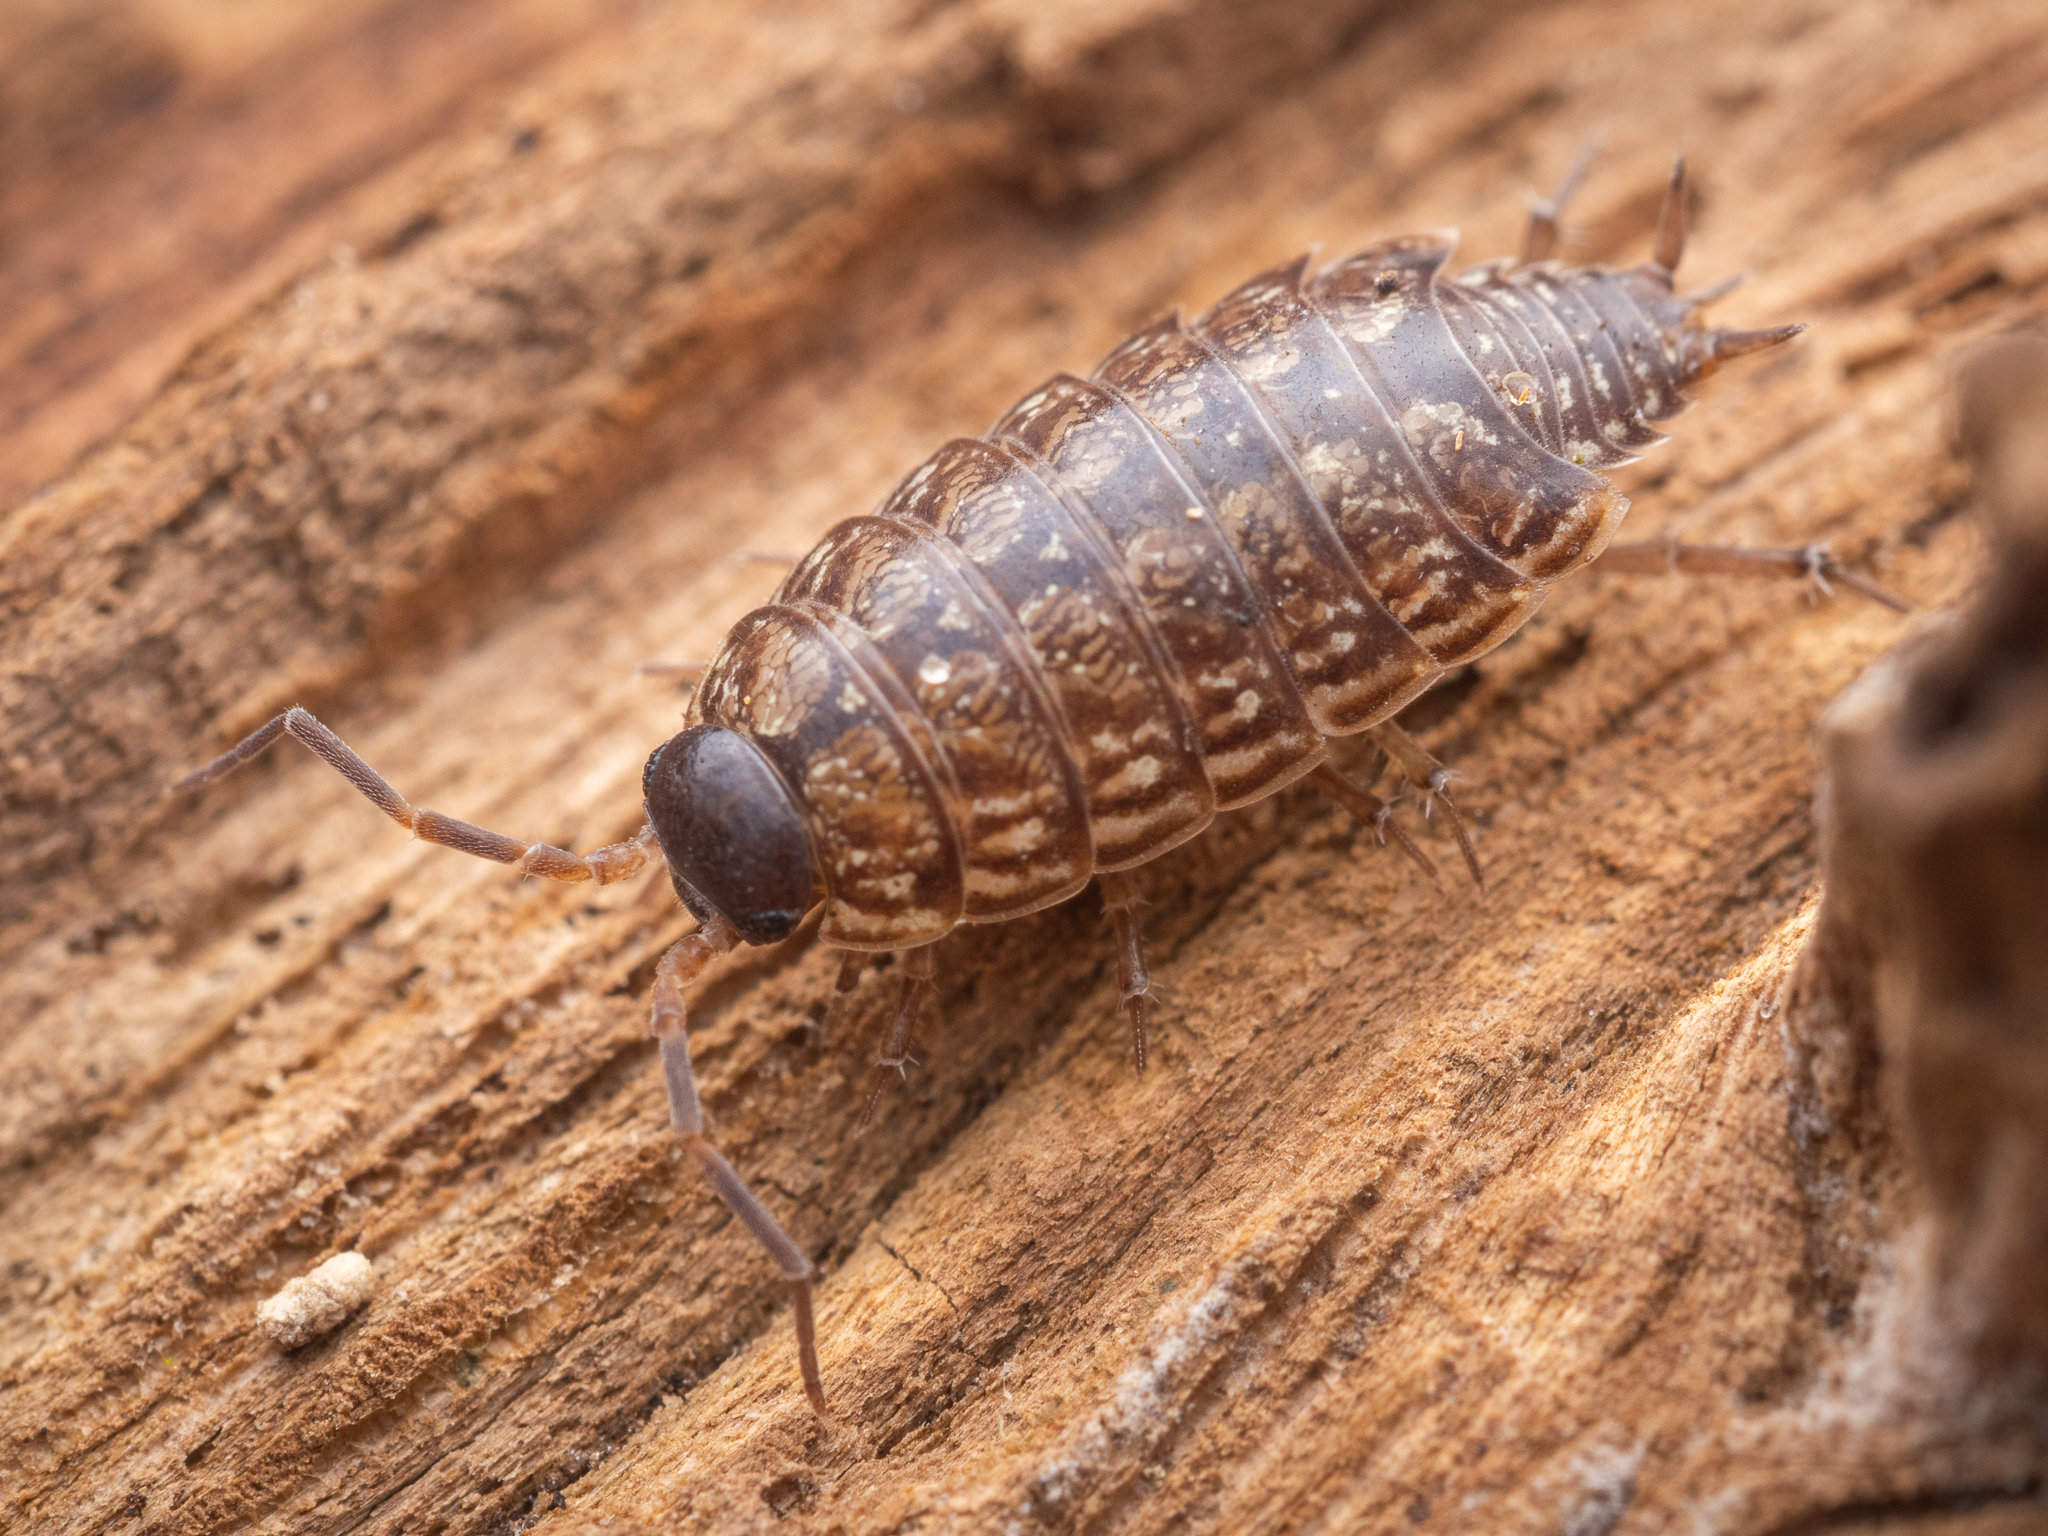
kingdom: Animalia
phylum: Arthropoda
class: Malacostraca
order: Isopoda
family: Philosciidae
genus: Philoscia
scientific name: Philoscia muscorum
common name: Common striped woodlouse
